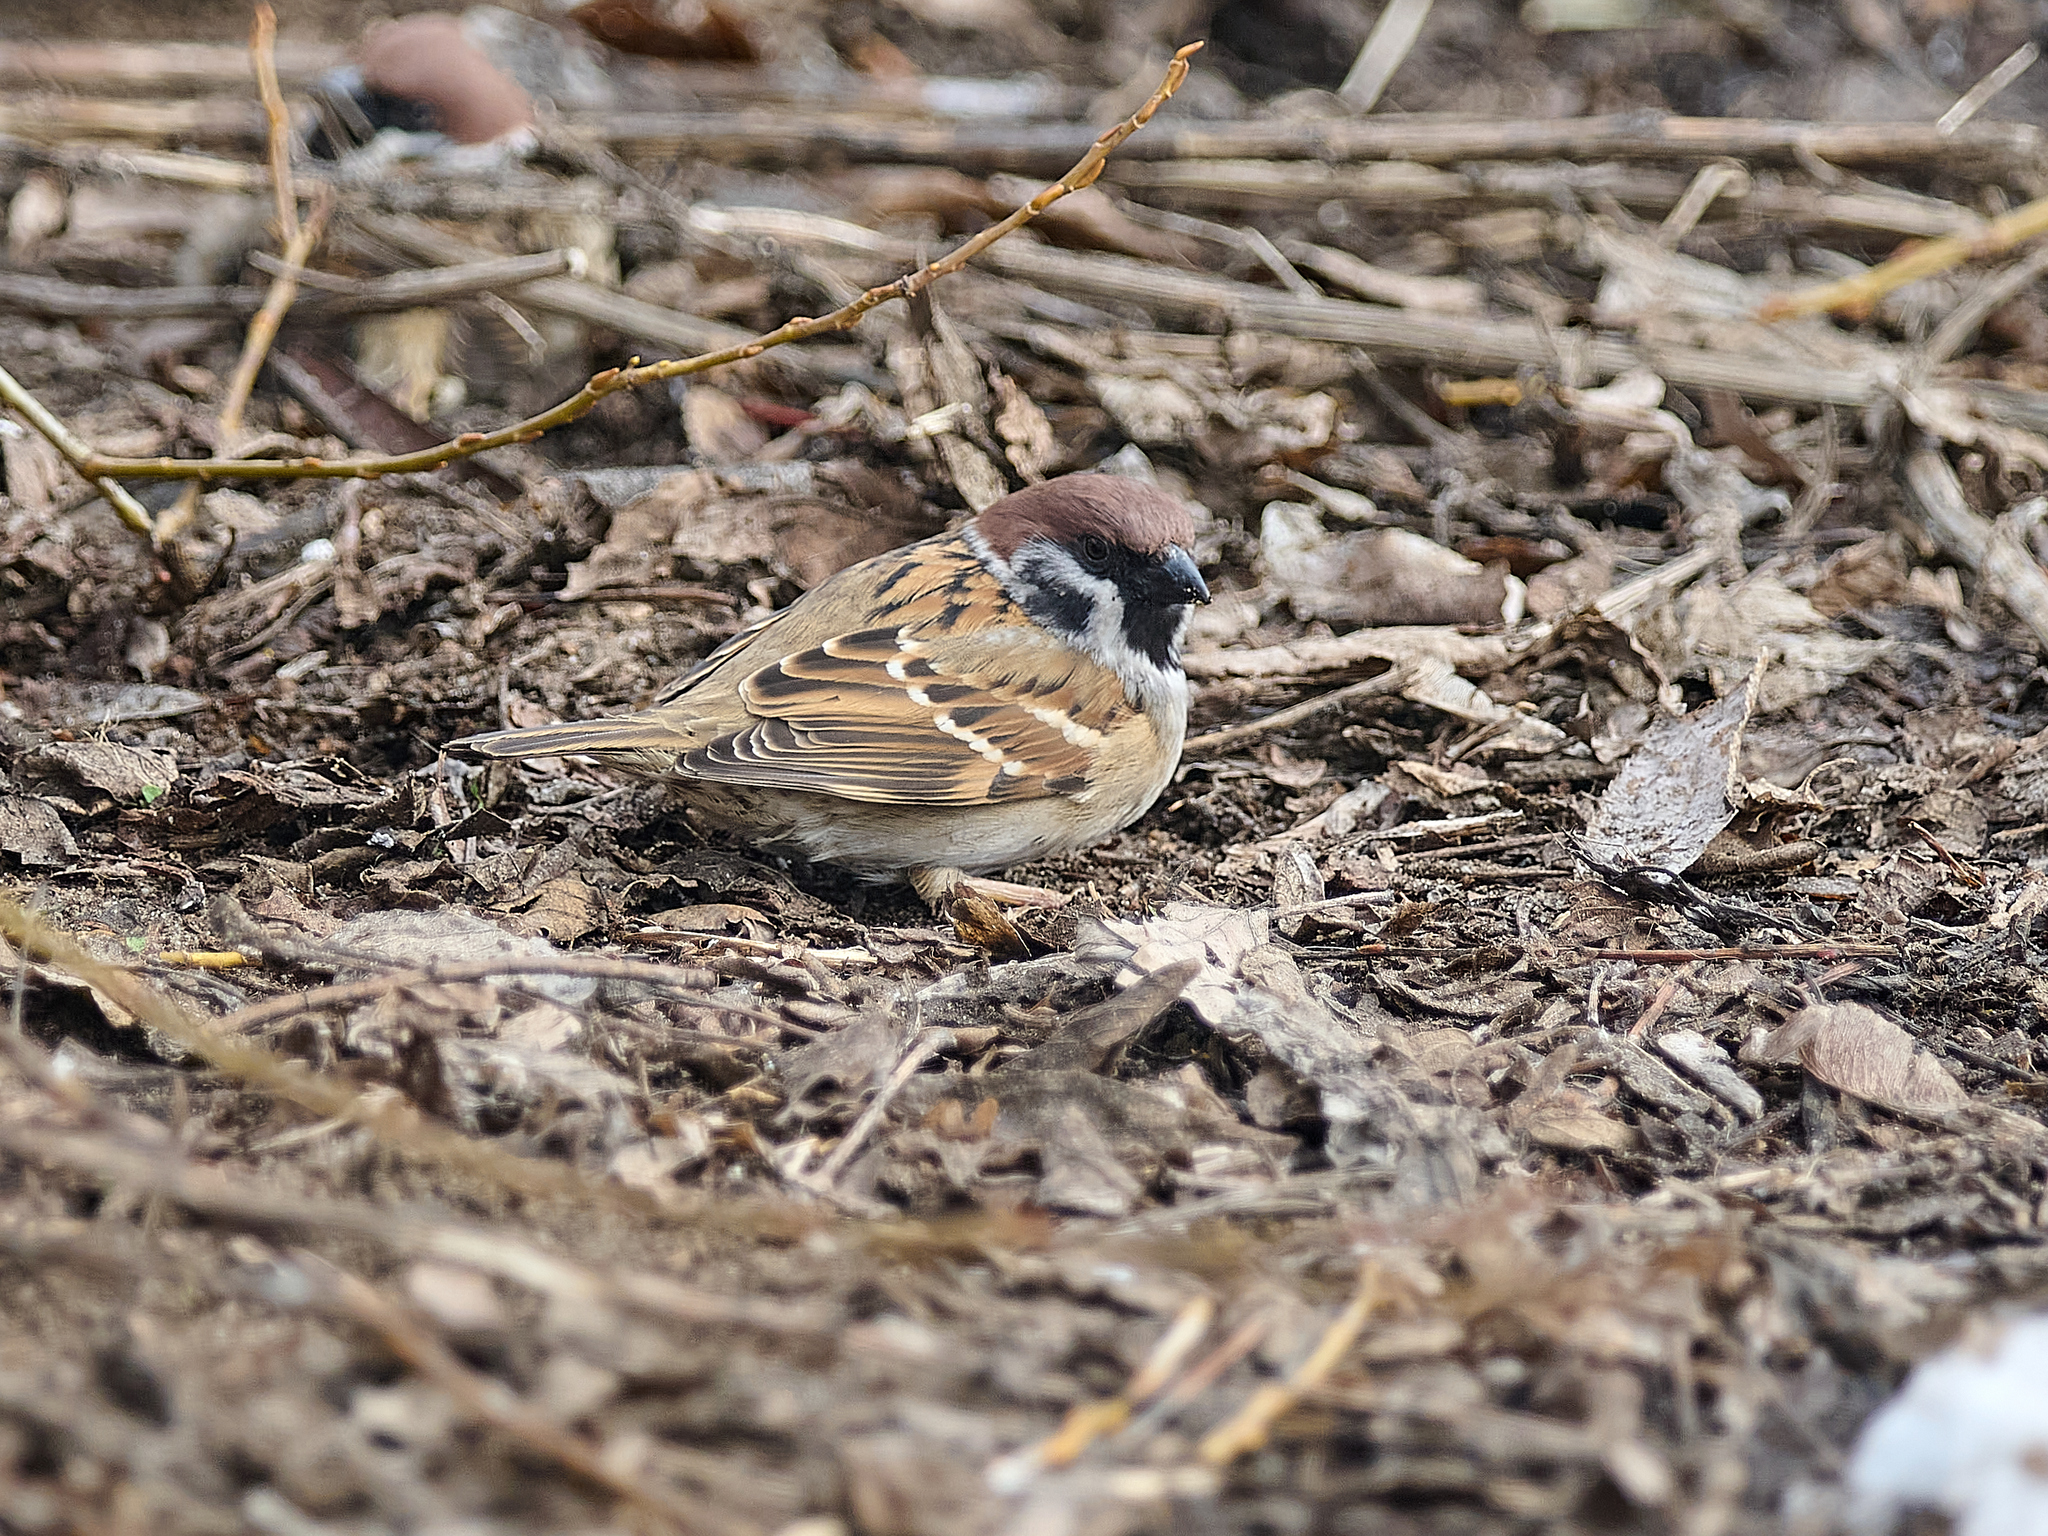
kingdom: Animalia
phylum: Chordata
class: Aves
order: Passeriformes
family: Passeridae
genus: Passer
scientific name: Passer montanus
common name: Eurasian tree sparrow
